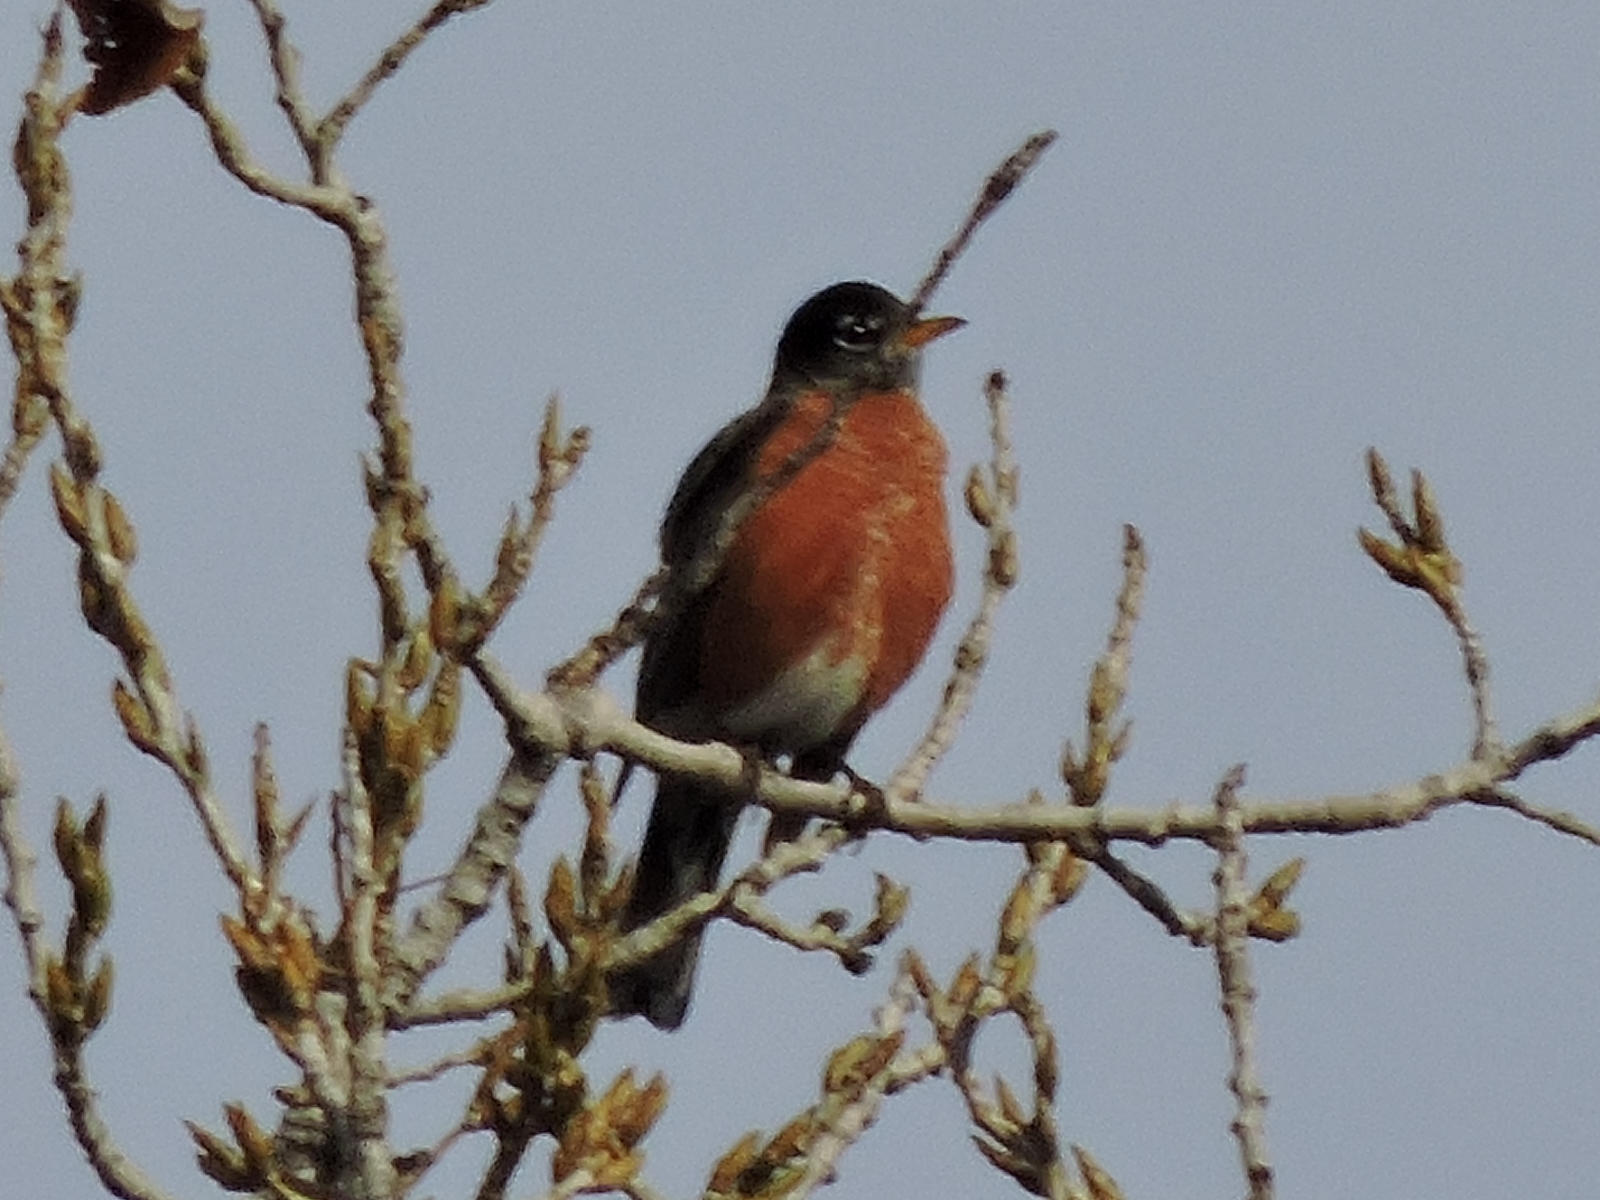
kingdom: Animalia
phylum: Chordata
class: Aves
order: Passeriformes
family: Turdidae
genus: Turdus
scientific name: Turdus migratorius
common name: American robin
